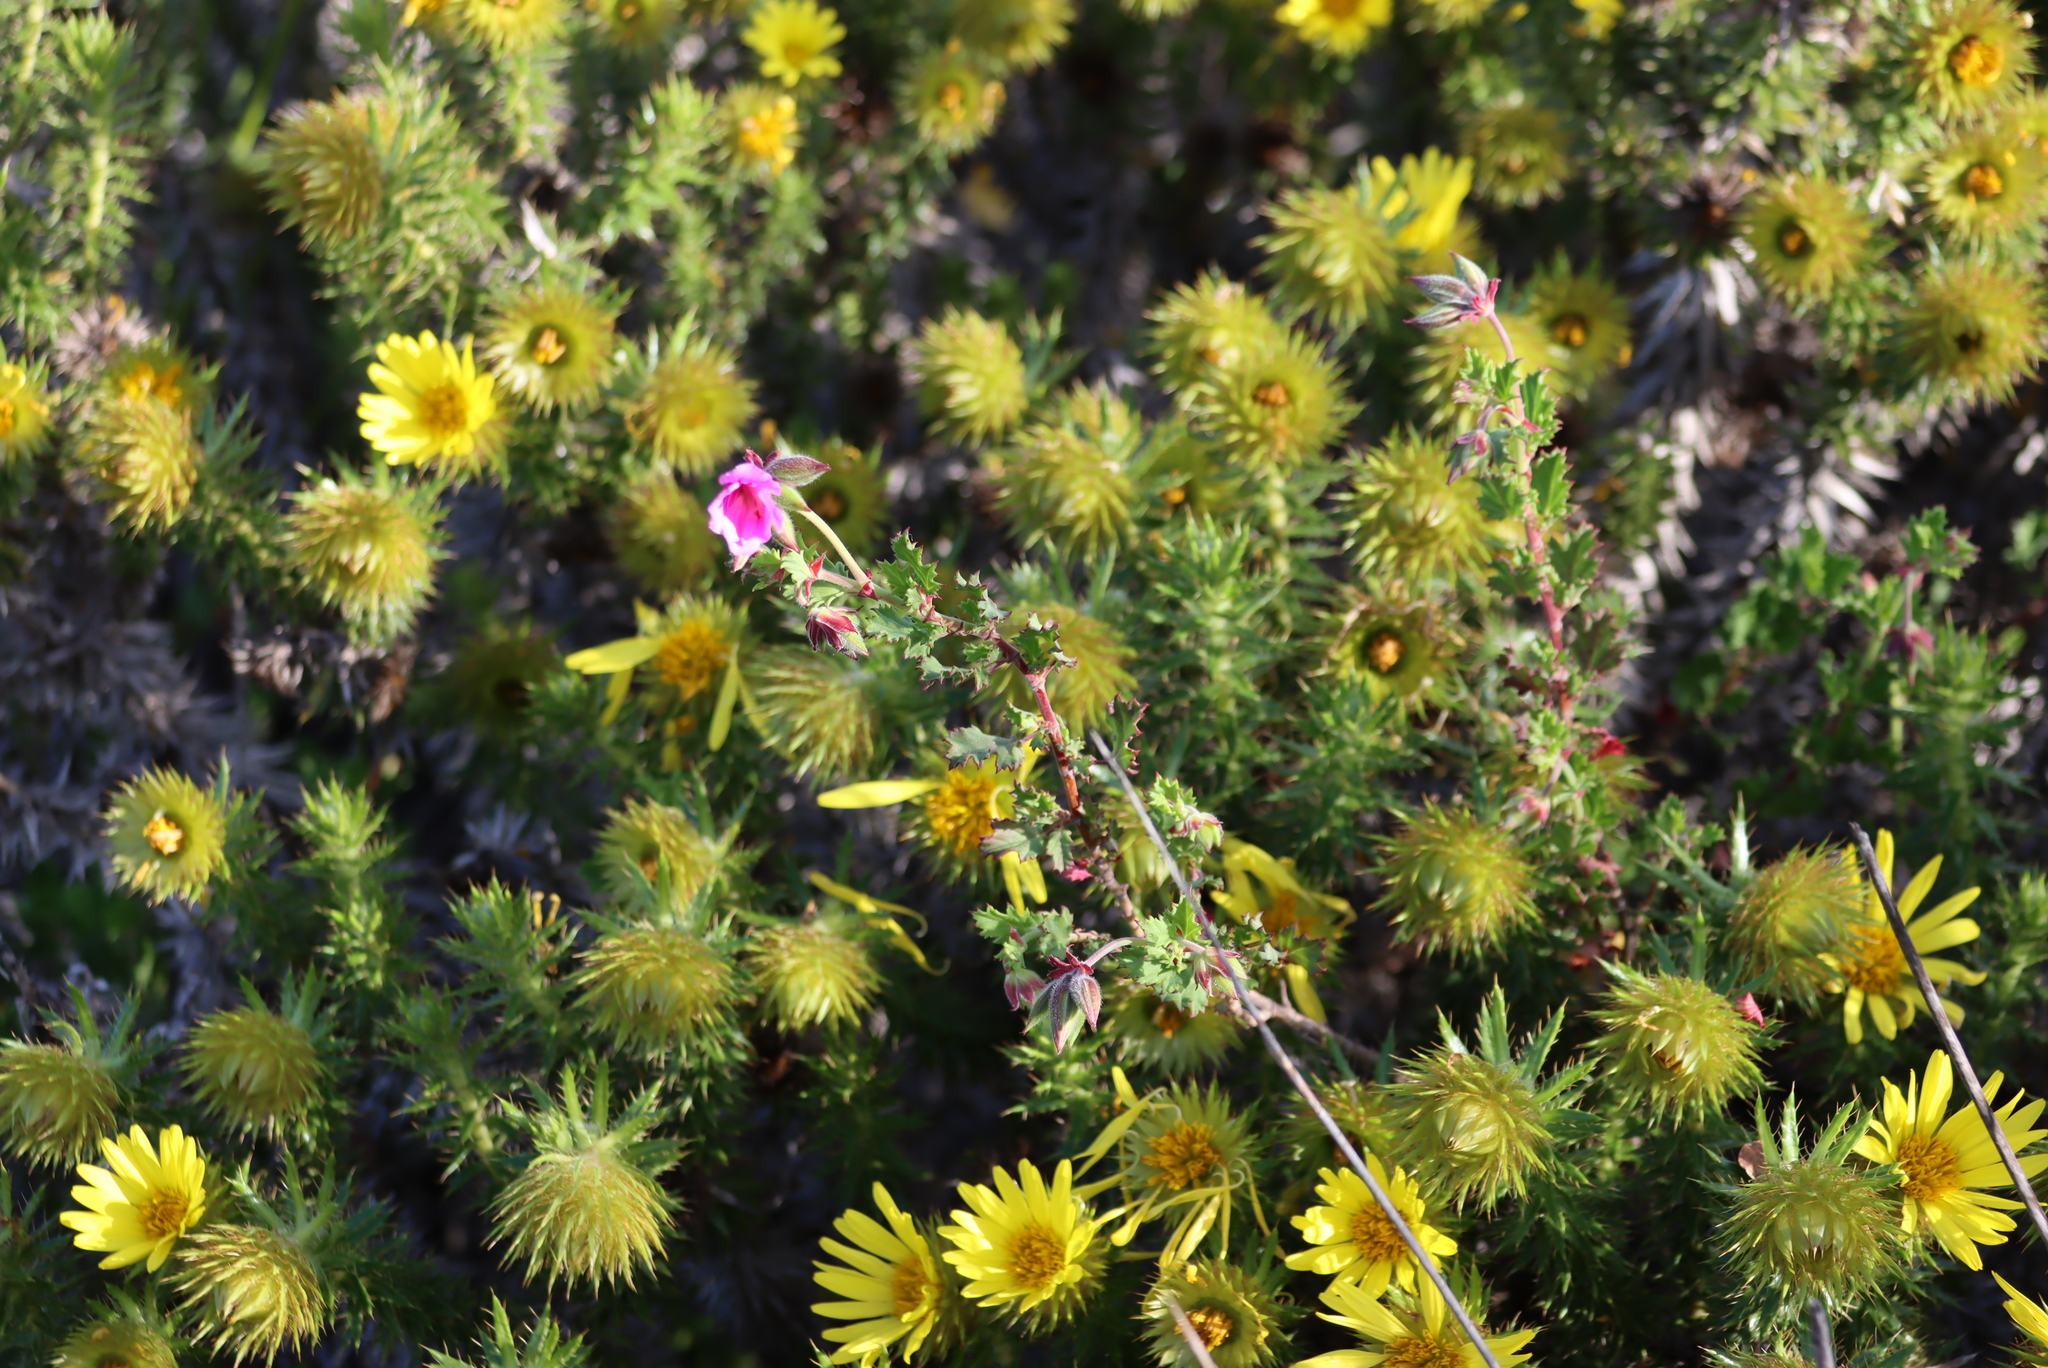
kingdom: Plantae
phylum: Tracheophyta
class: Magnoliopsida
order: Asterales
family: Asteraceae
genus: Cullumia
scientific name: Cullumia carlinoides
